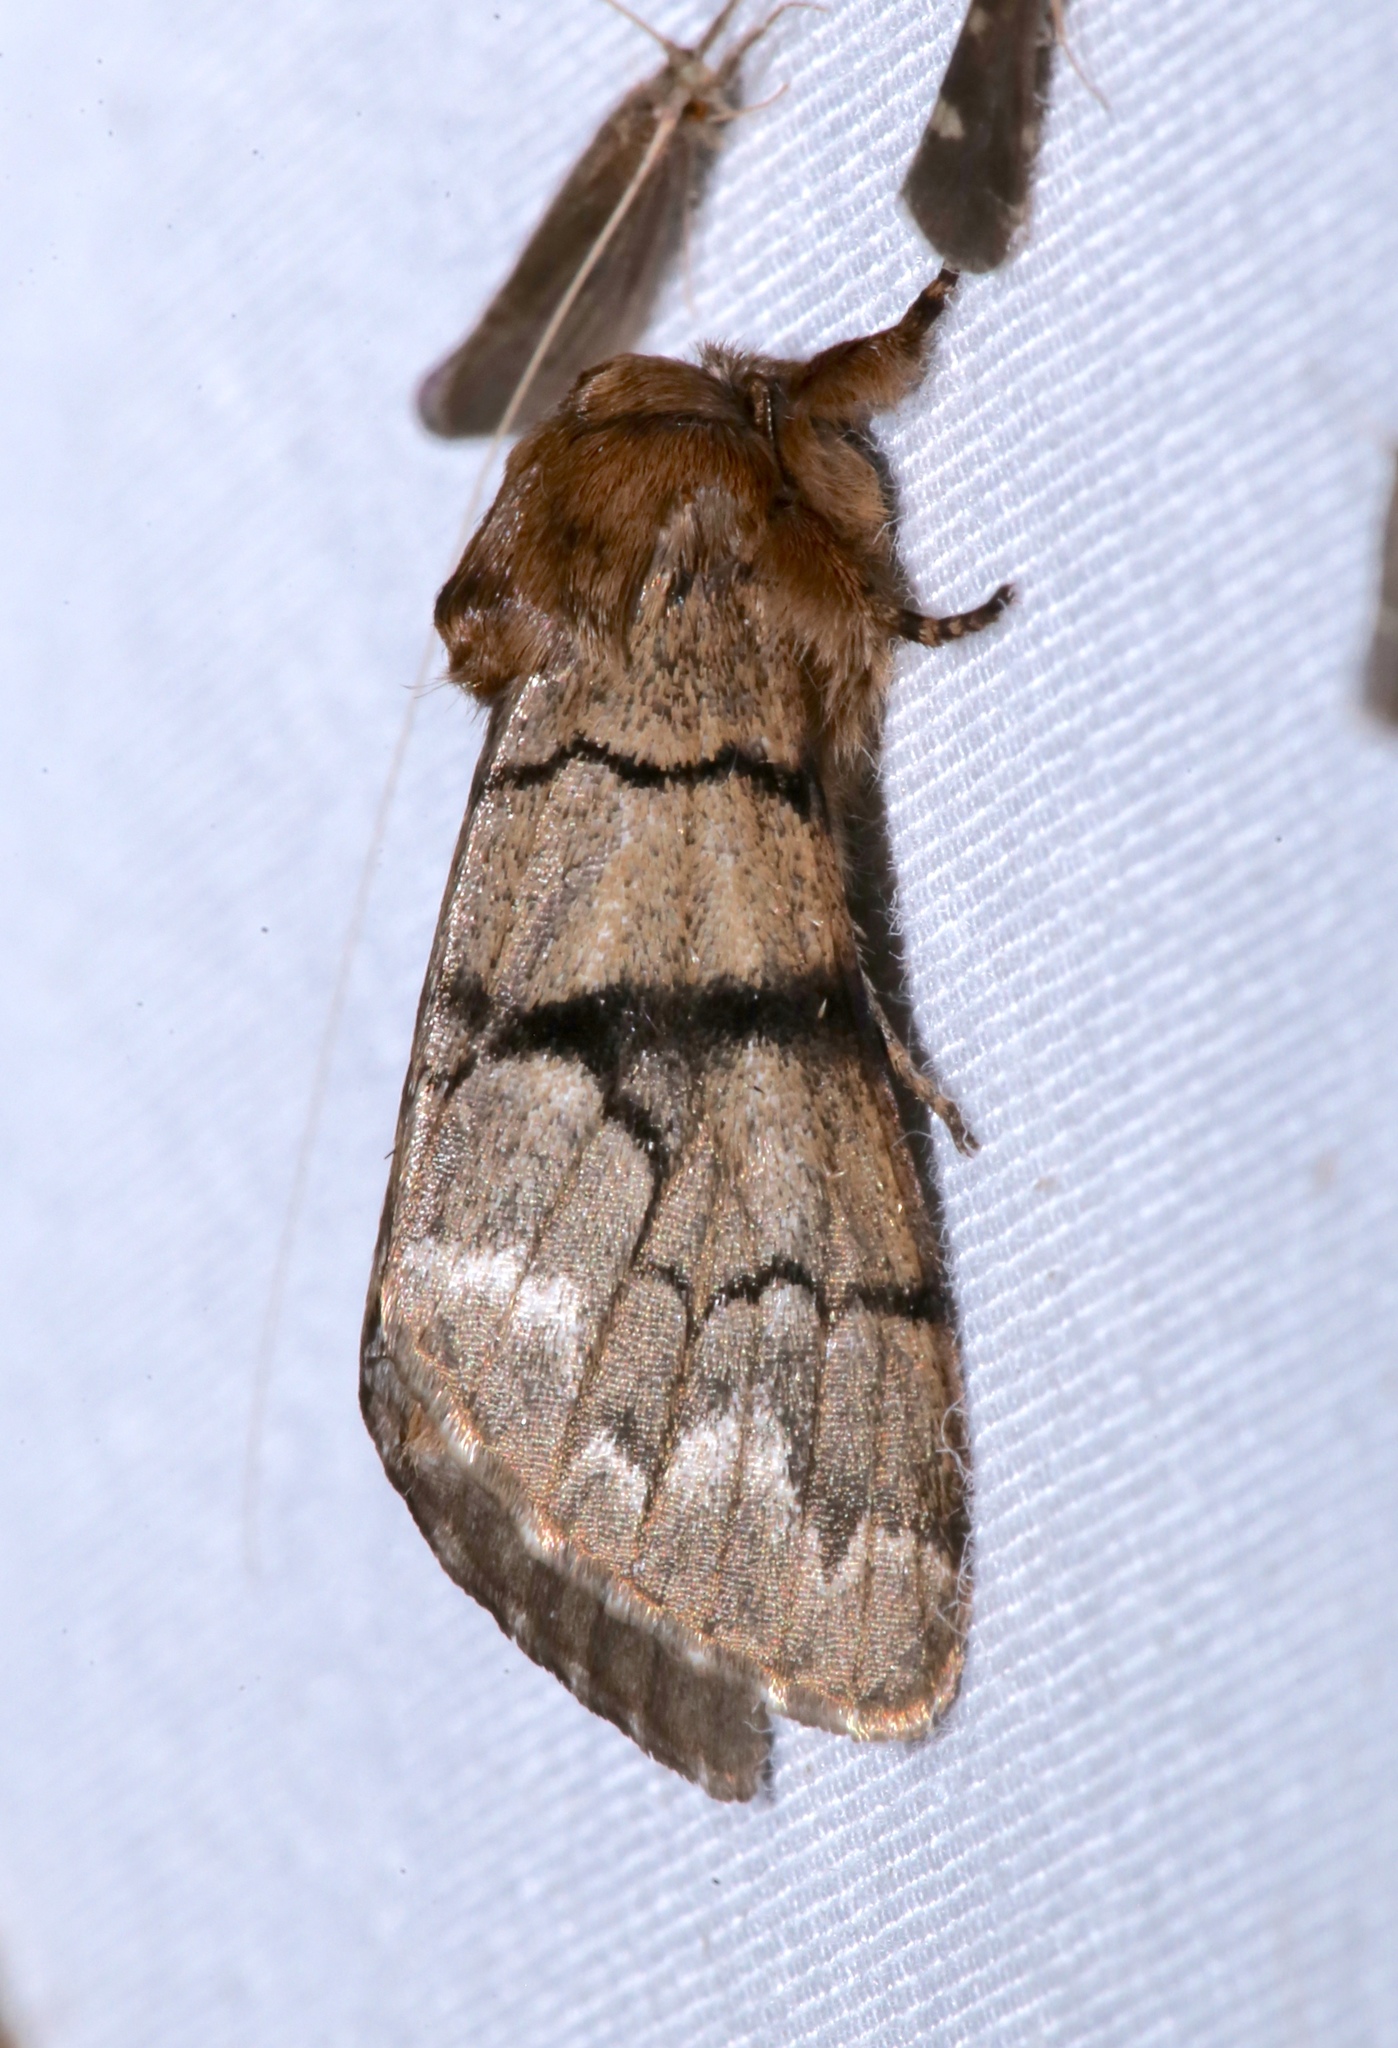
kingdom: Animalia
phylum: Arthropoda
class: Insecta
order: Lepidoptera
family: Noctuidae
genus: Panthea
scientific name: Panthea furcilla
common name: Eastern panthea moth
